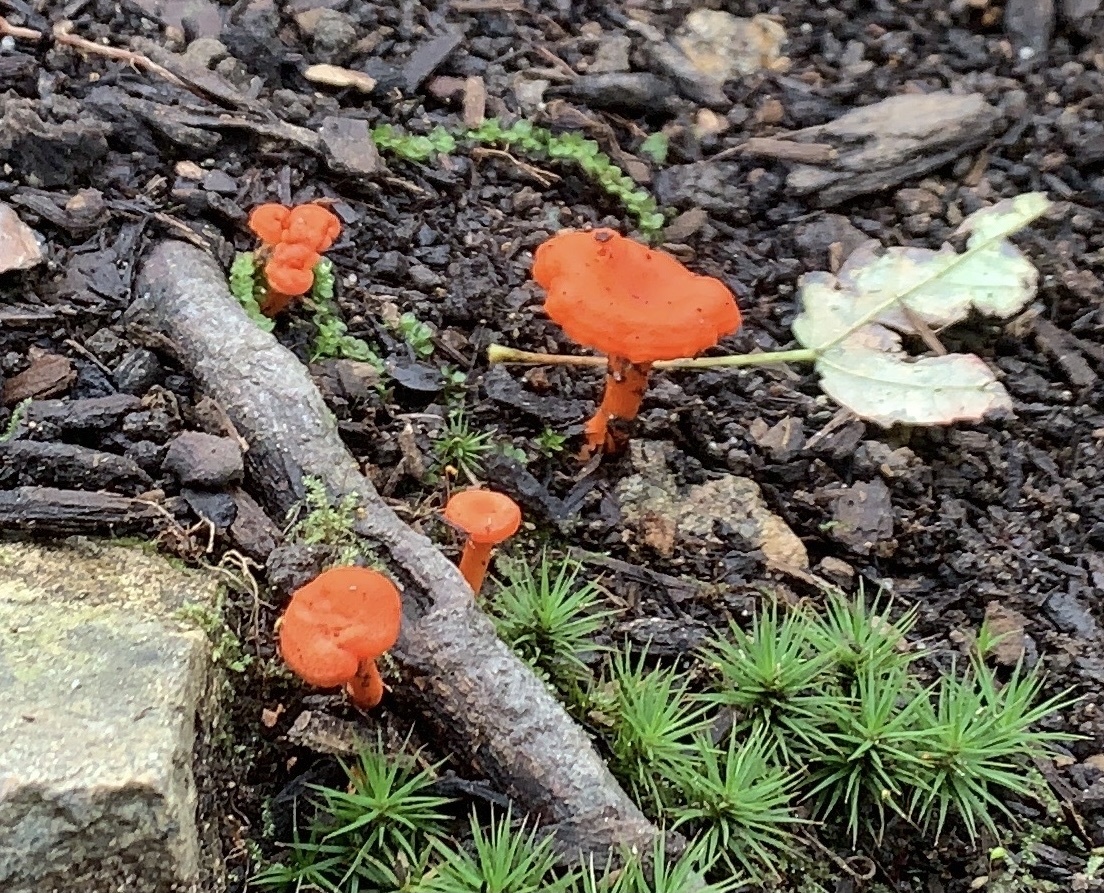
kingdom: Fungi
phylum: Basidiomycota
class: Agaricomycetes
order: Cantharellales
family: Hydnaceae
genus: Cantharellus
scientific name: Cantharellus cinnabarinus
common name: Cinnabar chanterelle
